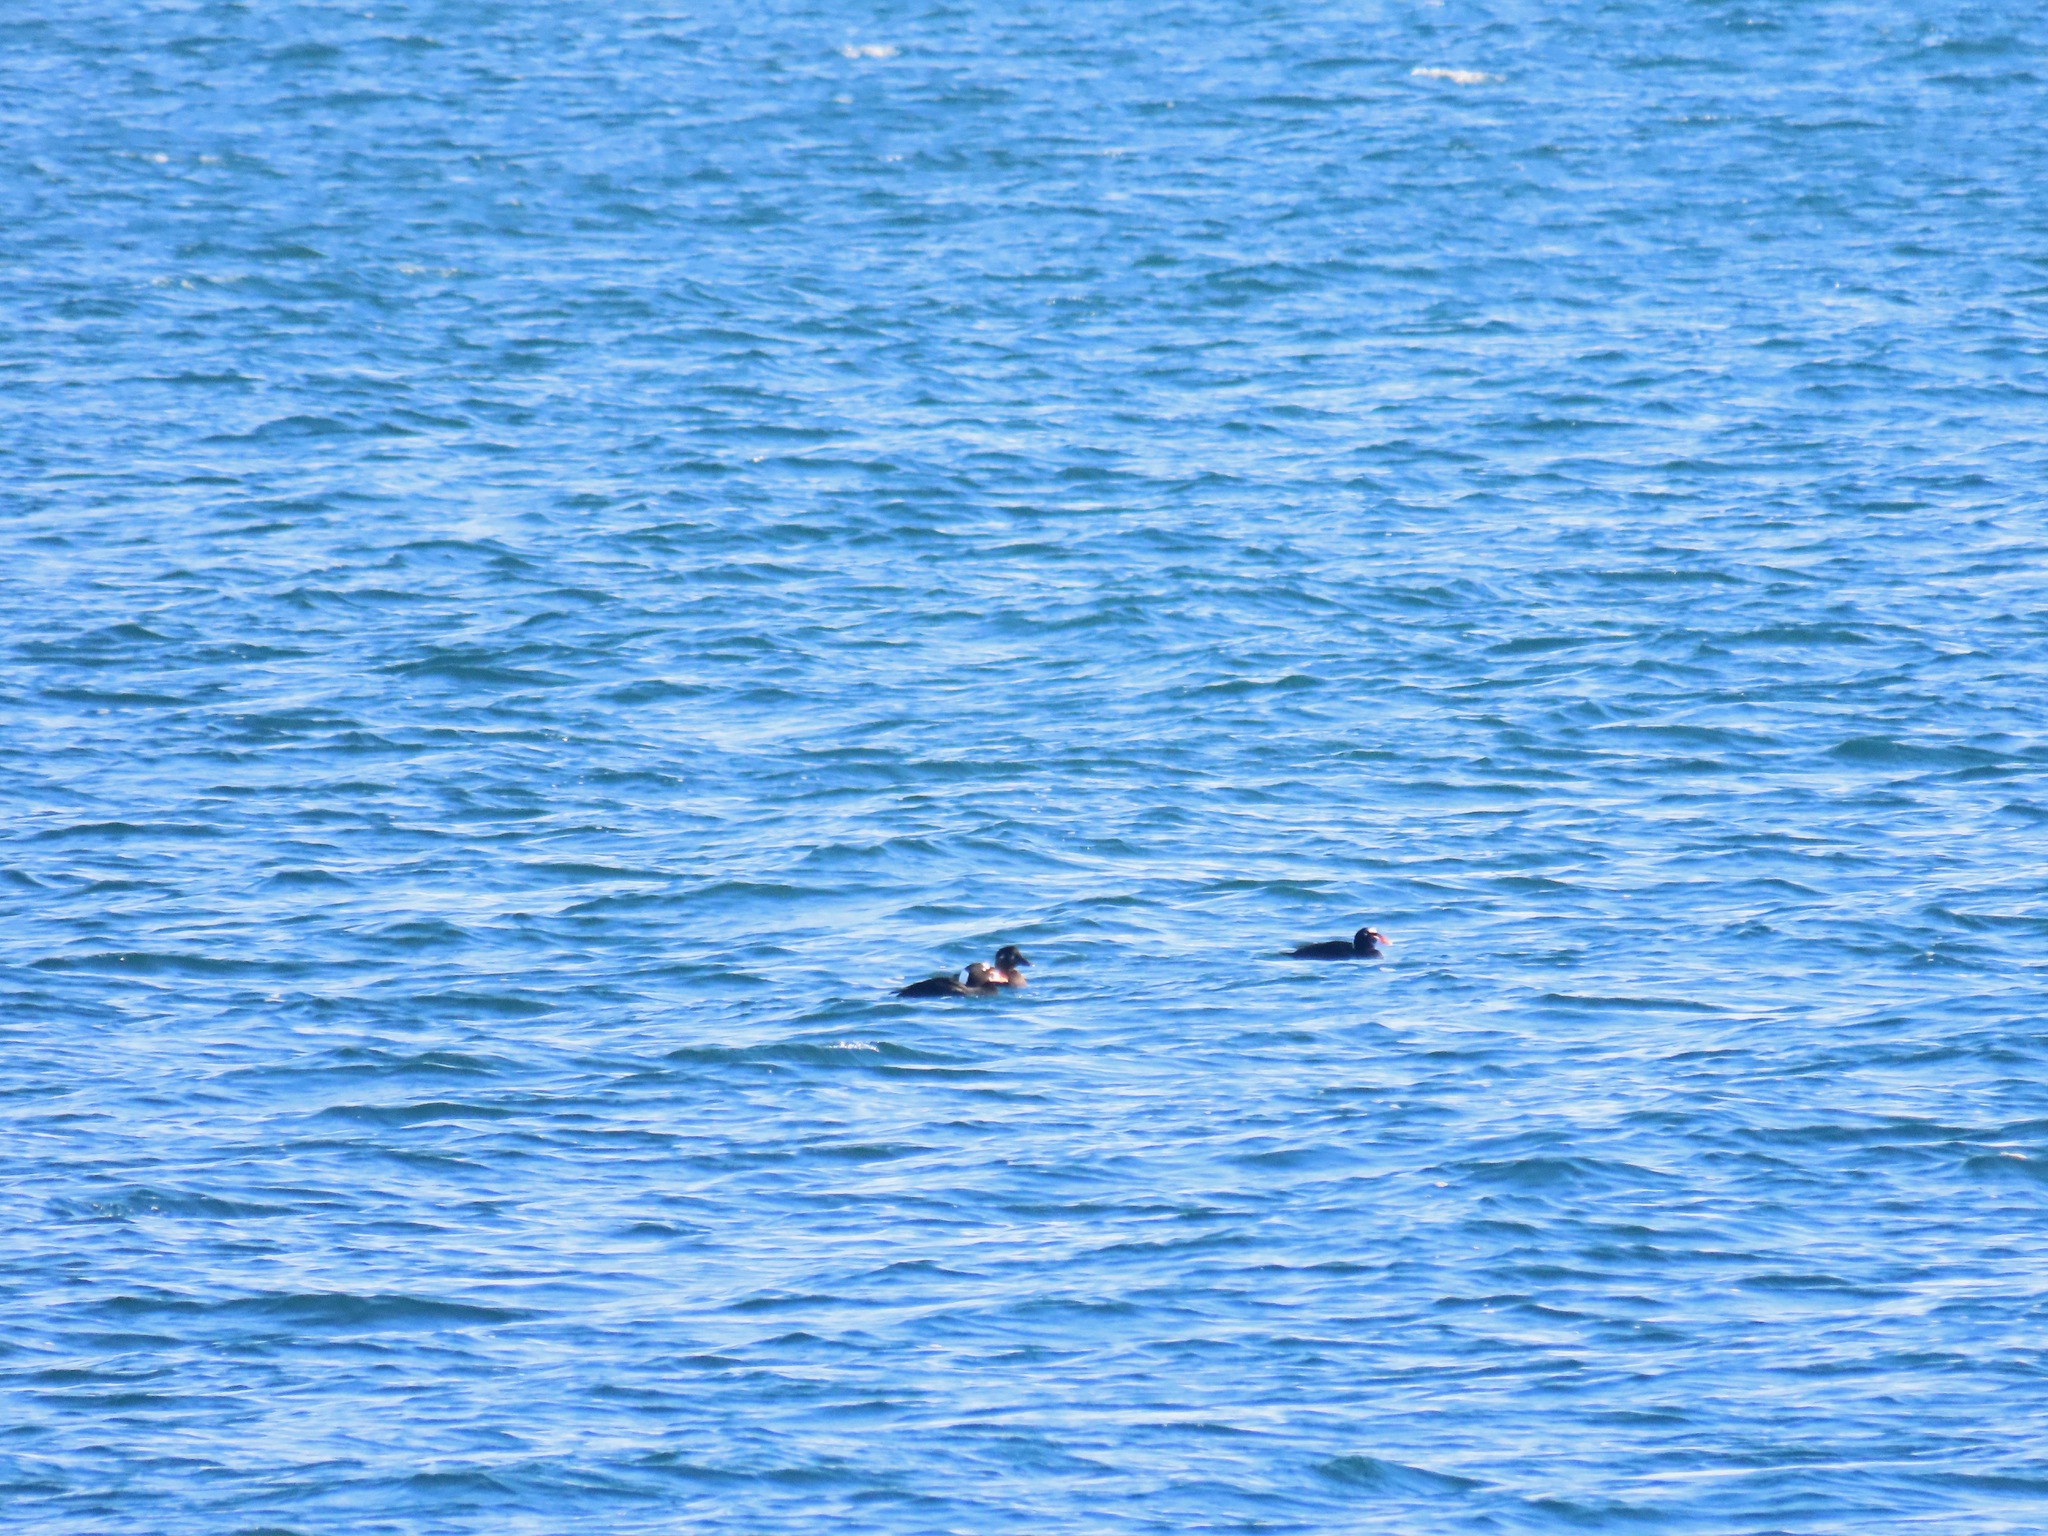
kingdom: Animalia
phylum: Chordata
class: Aves
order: Anseriformes
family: Anatidae
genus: Melanitta
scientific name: Melanitta perspicillata
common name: Surf scoter
